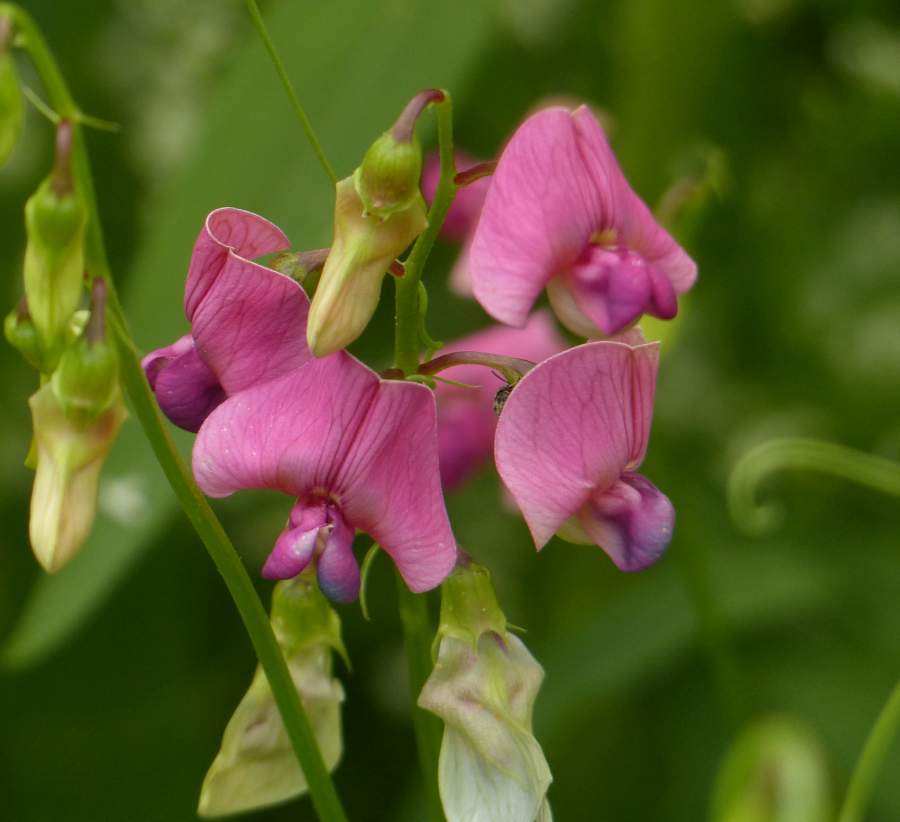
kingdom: Plantae
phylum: Tracheophyta
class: Magnoliopsida
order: Fabales
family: Fabaceae
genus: Lathyrus
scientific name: Lathyrus sylvestris
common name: Flat pea
